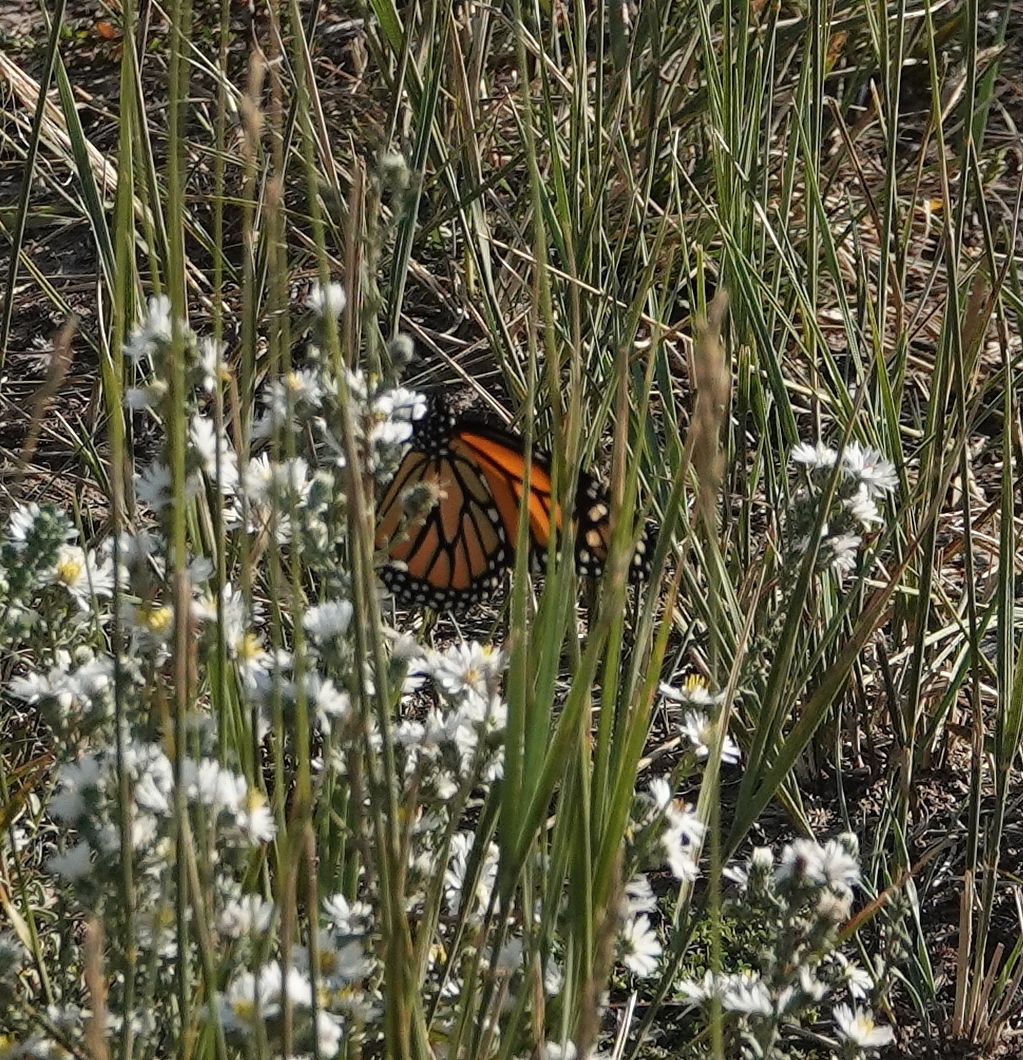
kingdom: Animalia
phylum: Arthropoda
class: Insecta
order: Lepidoptera
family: Nymphalidae
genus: Danaus
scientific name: Danaus plexippus
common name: Monarch
